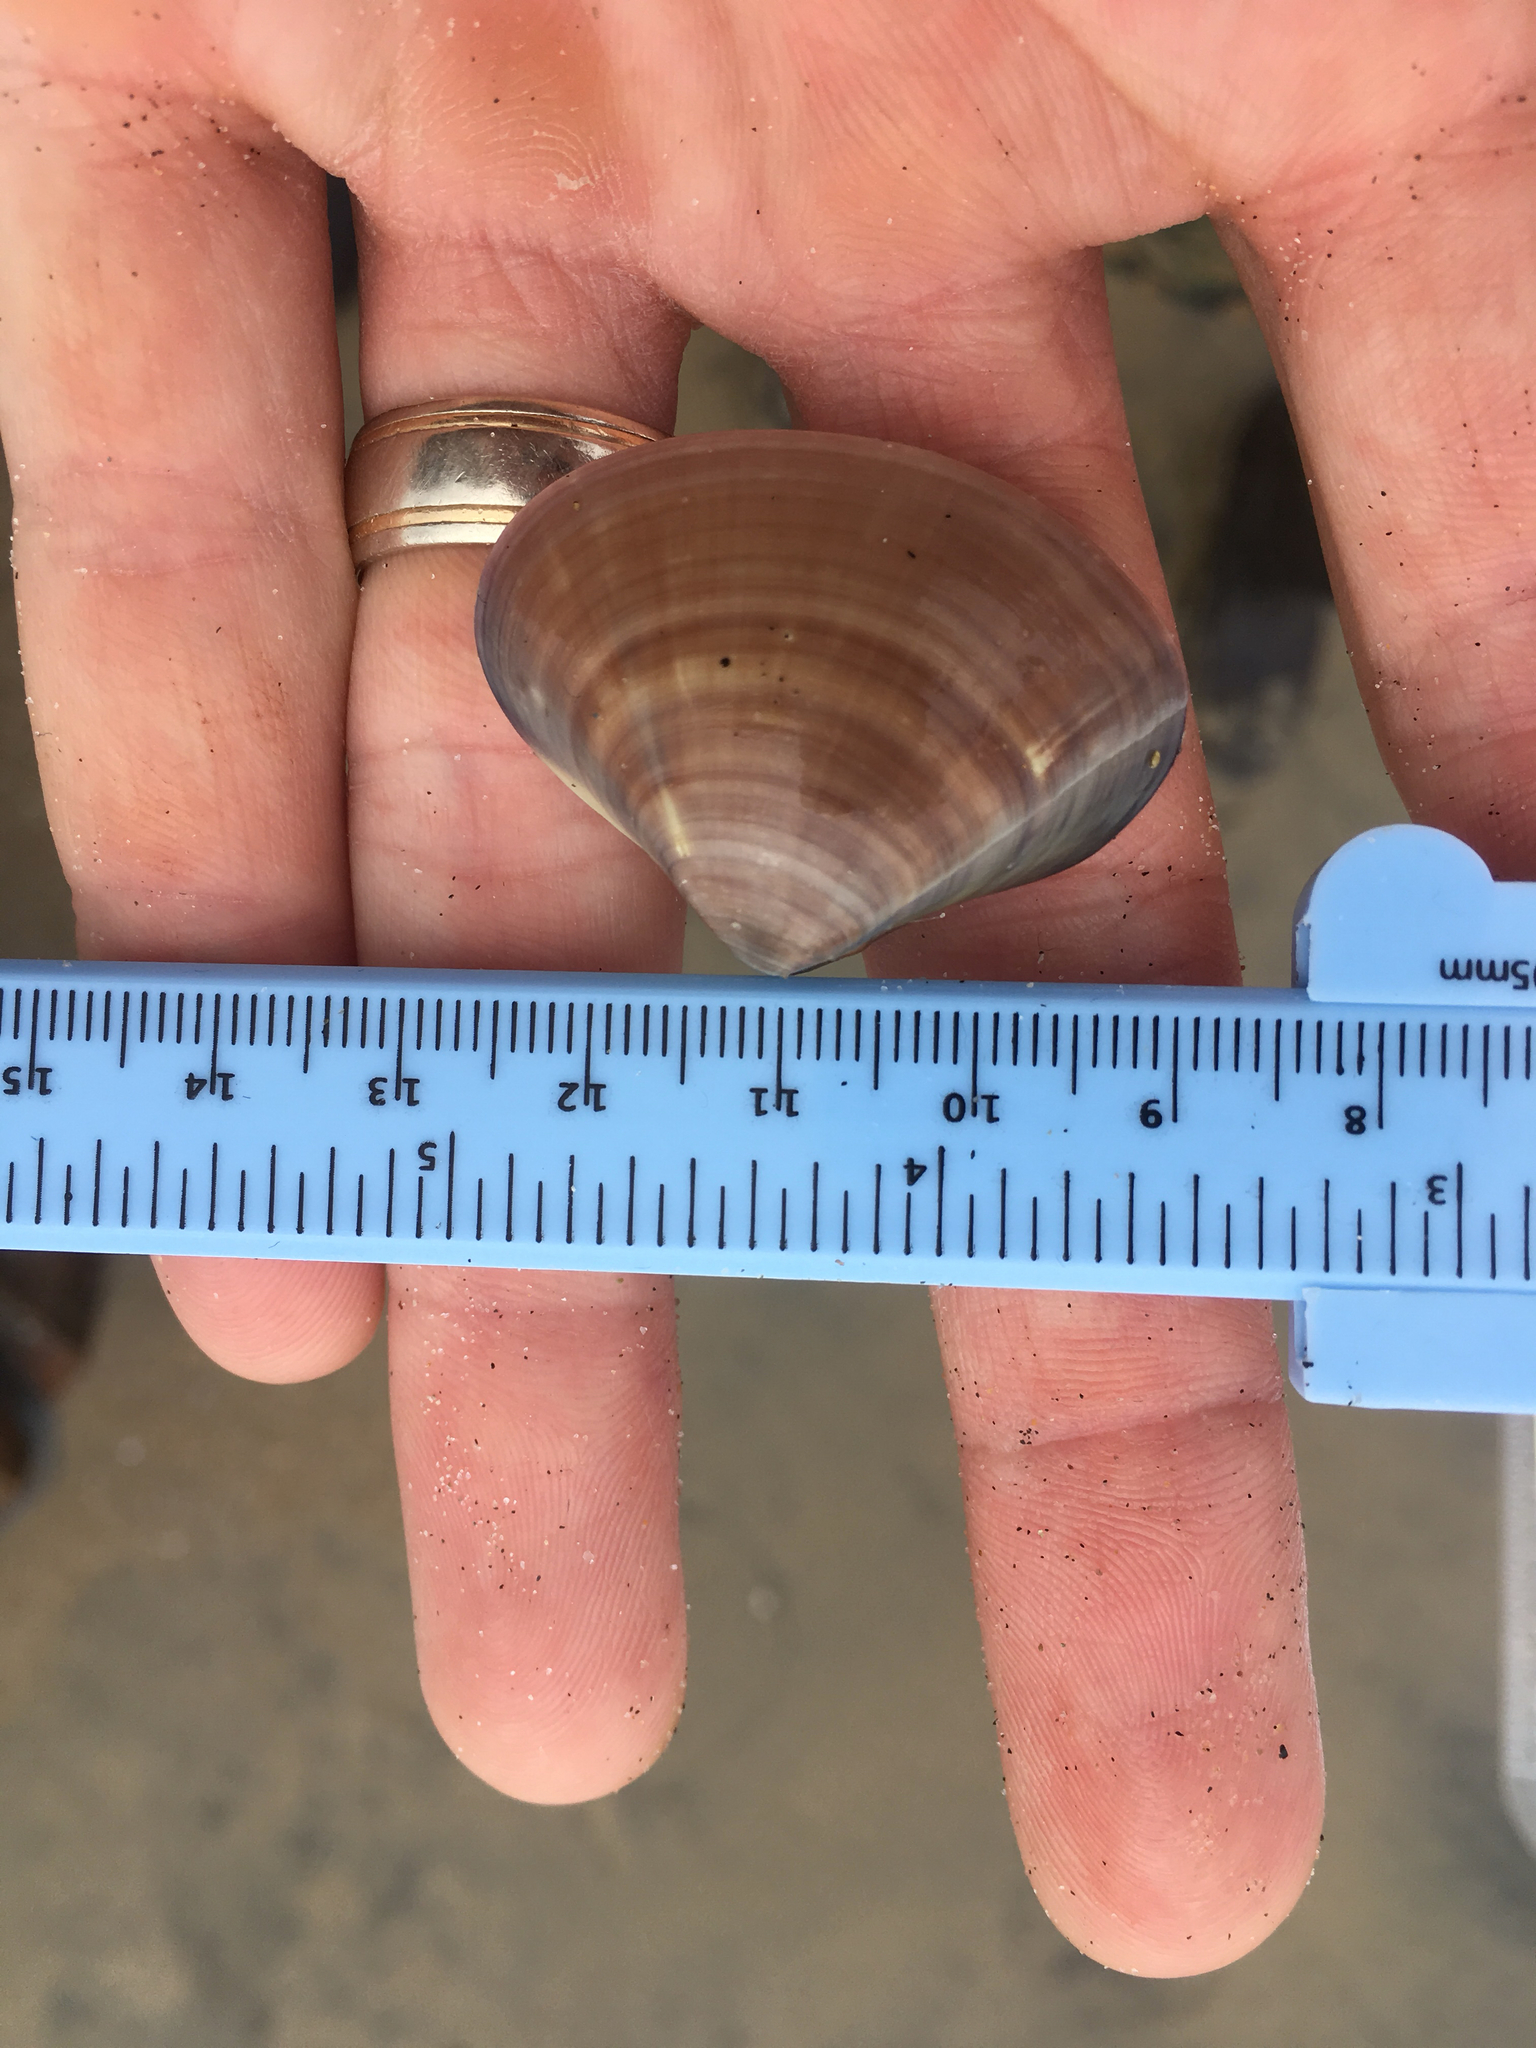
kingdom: Animalia
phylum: Mollusca
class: Bivalvia
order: Venerida
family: Veneridae
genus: Tivela
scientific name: Tivela stultorum
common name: Pismo clam
